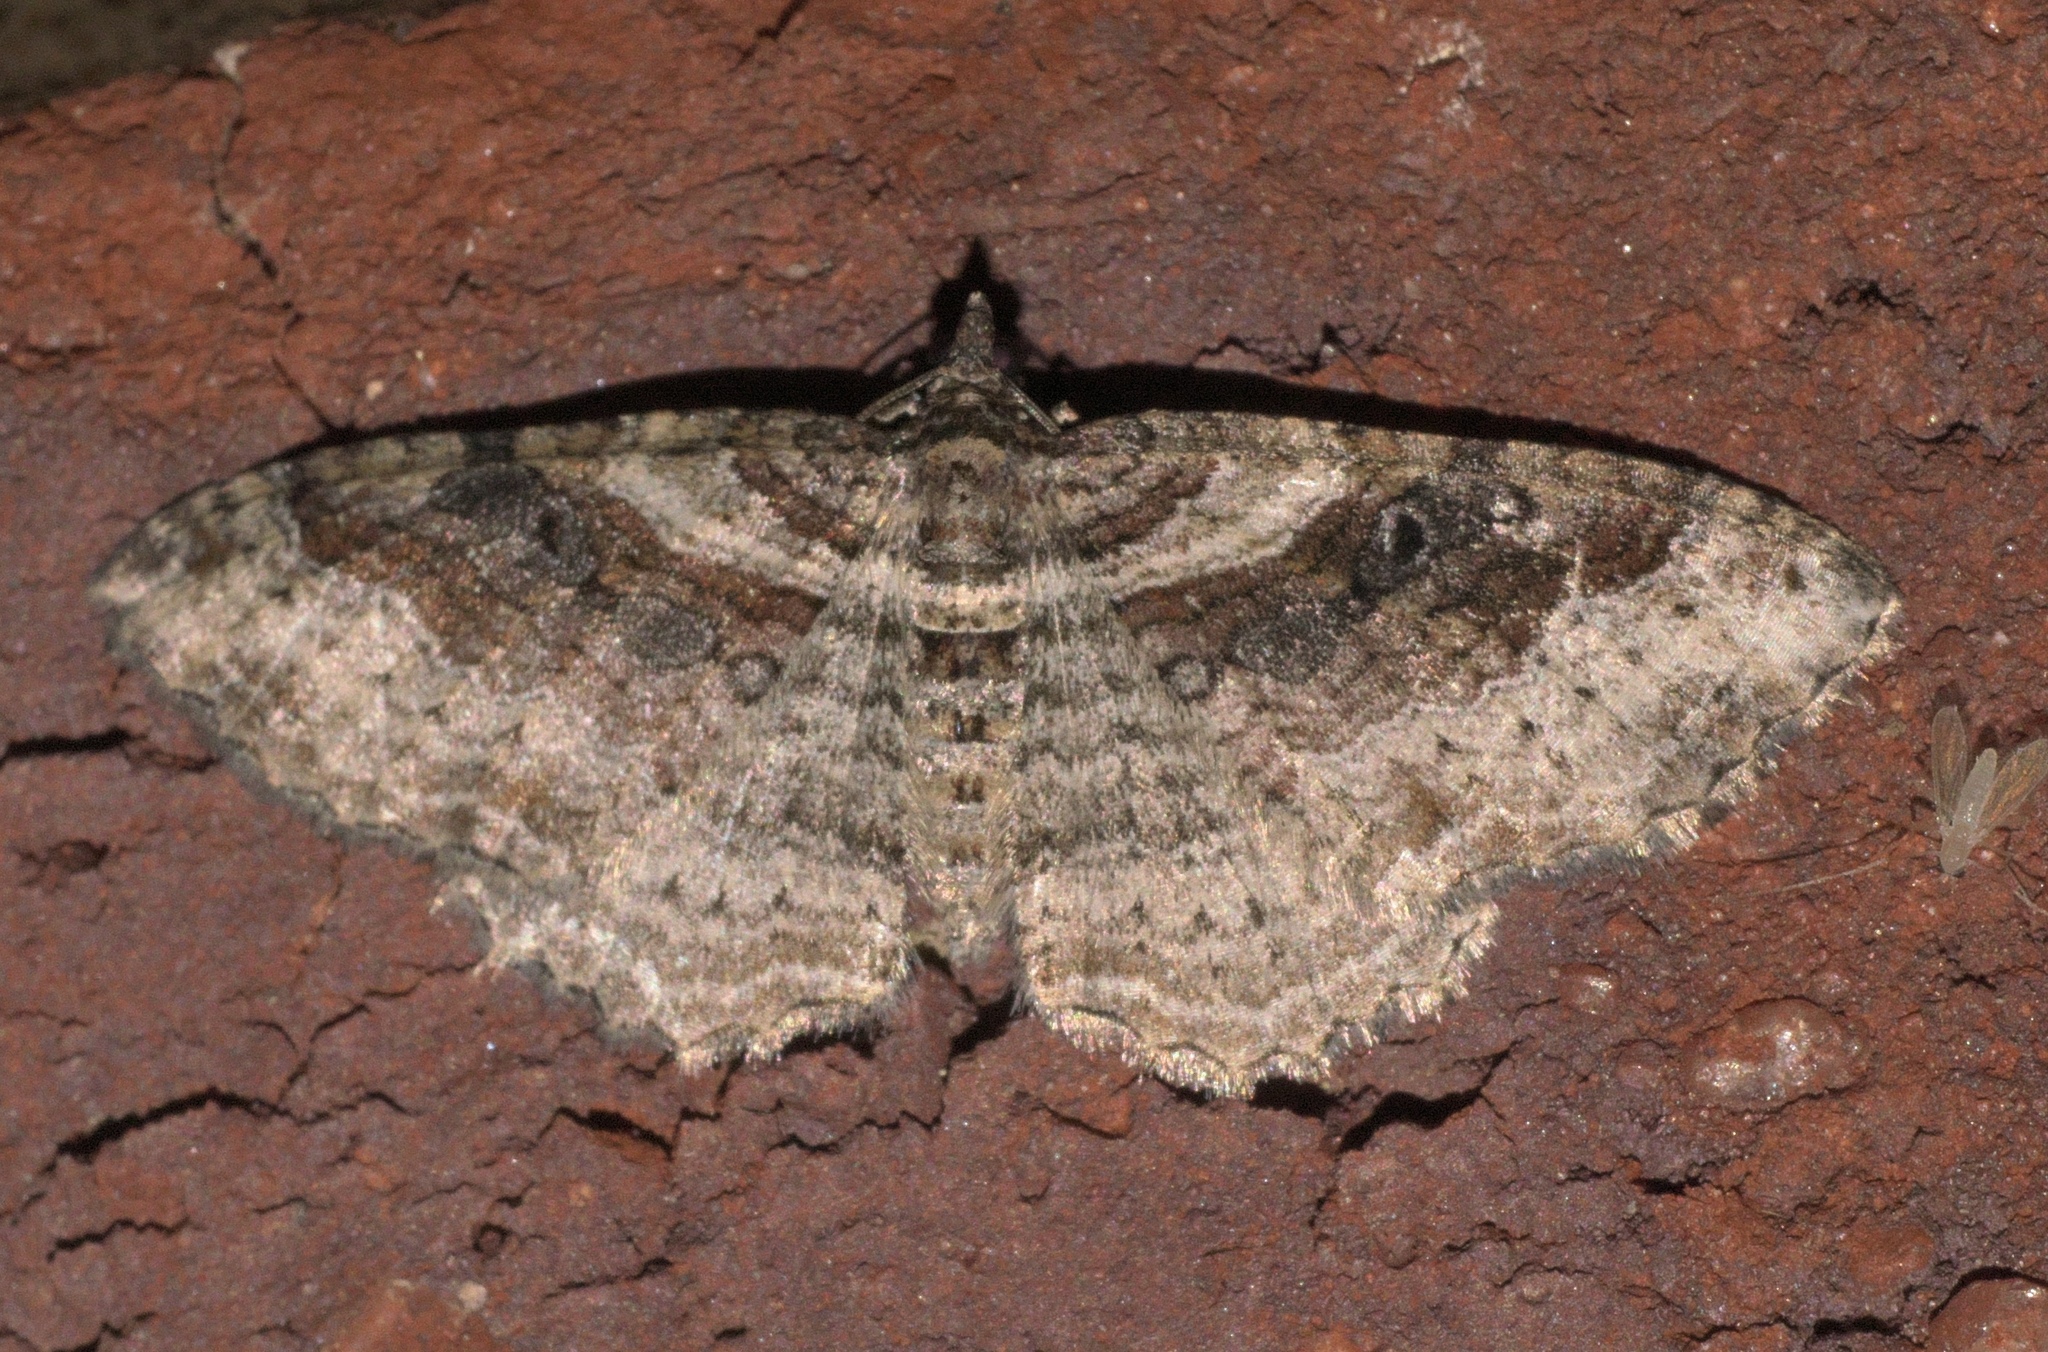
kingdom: Animalia
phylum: Arthropoda
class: Insecta
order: Lepidoptera
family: Geometridae
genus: Costaconvexa
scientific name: Costaconvexa centrostrigaria
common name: Bent-line carpet
